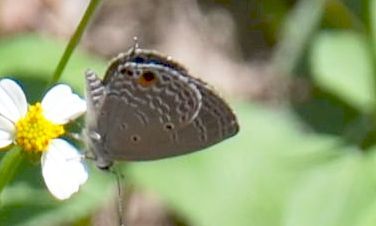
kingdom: Animalia
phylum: Arthropoda
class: Insecta
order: Lepidoptera
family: Lycaenidae
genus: Luthrodes
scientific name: Luthrodes pandava
